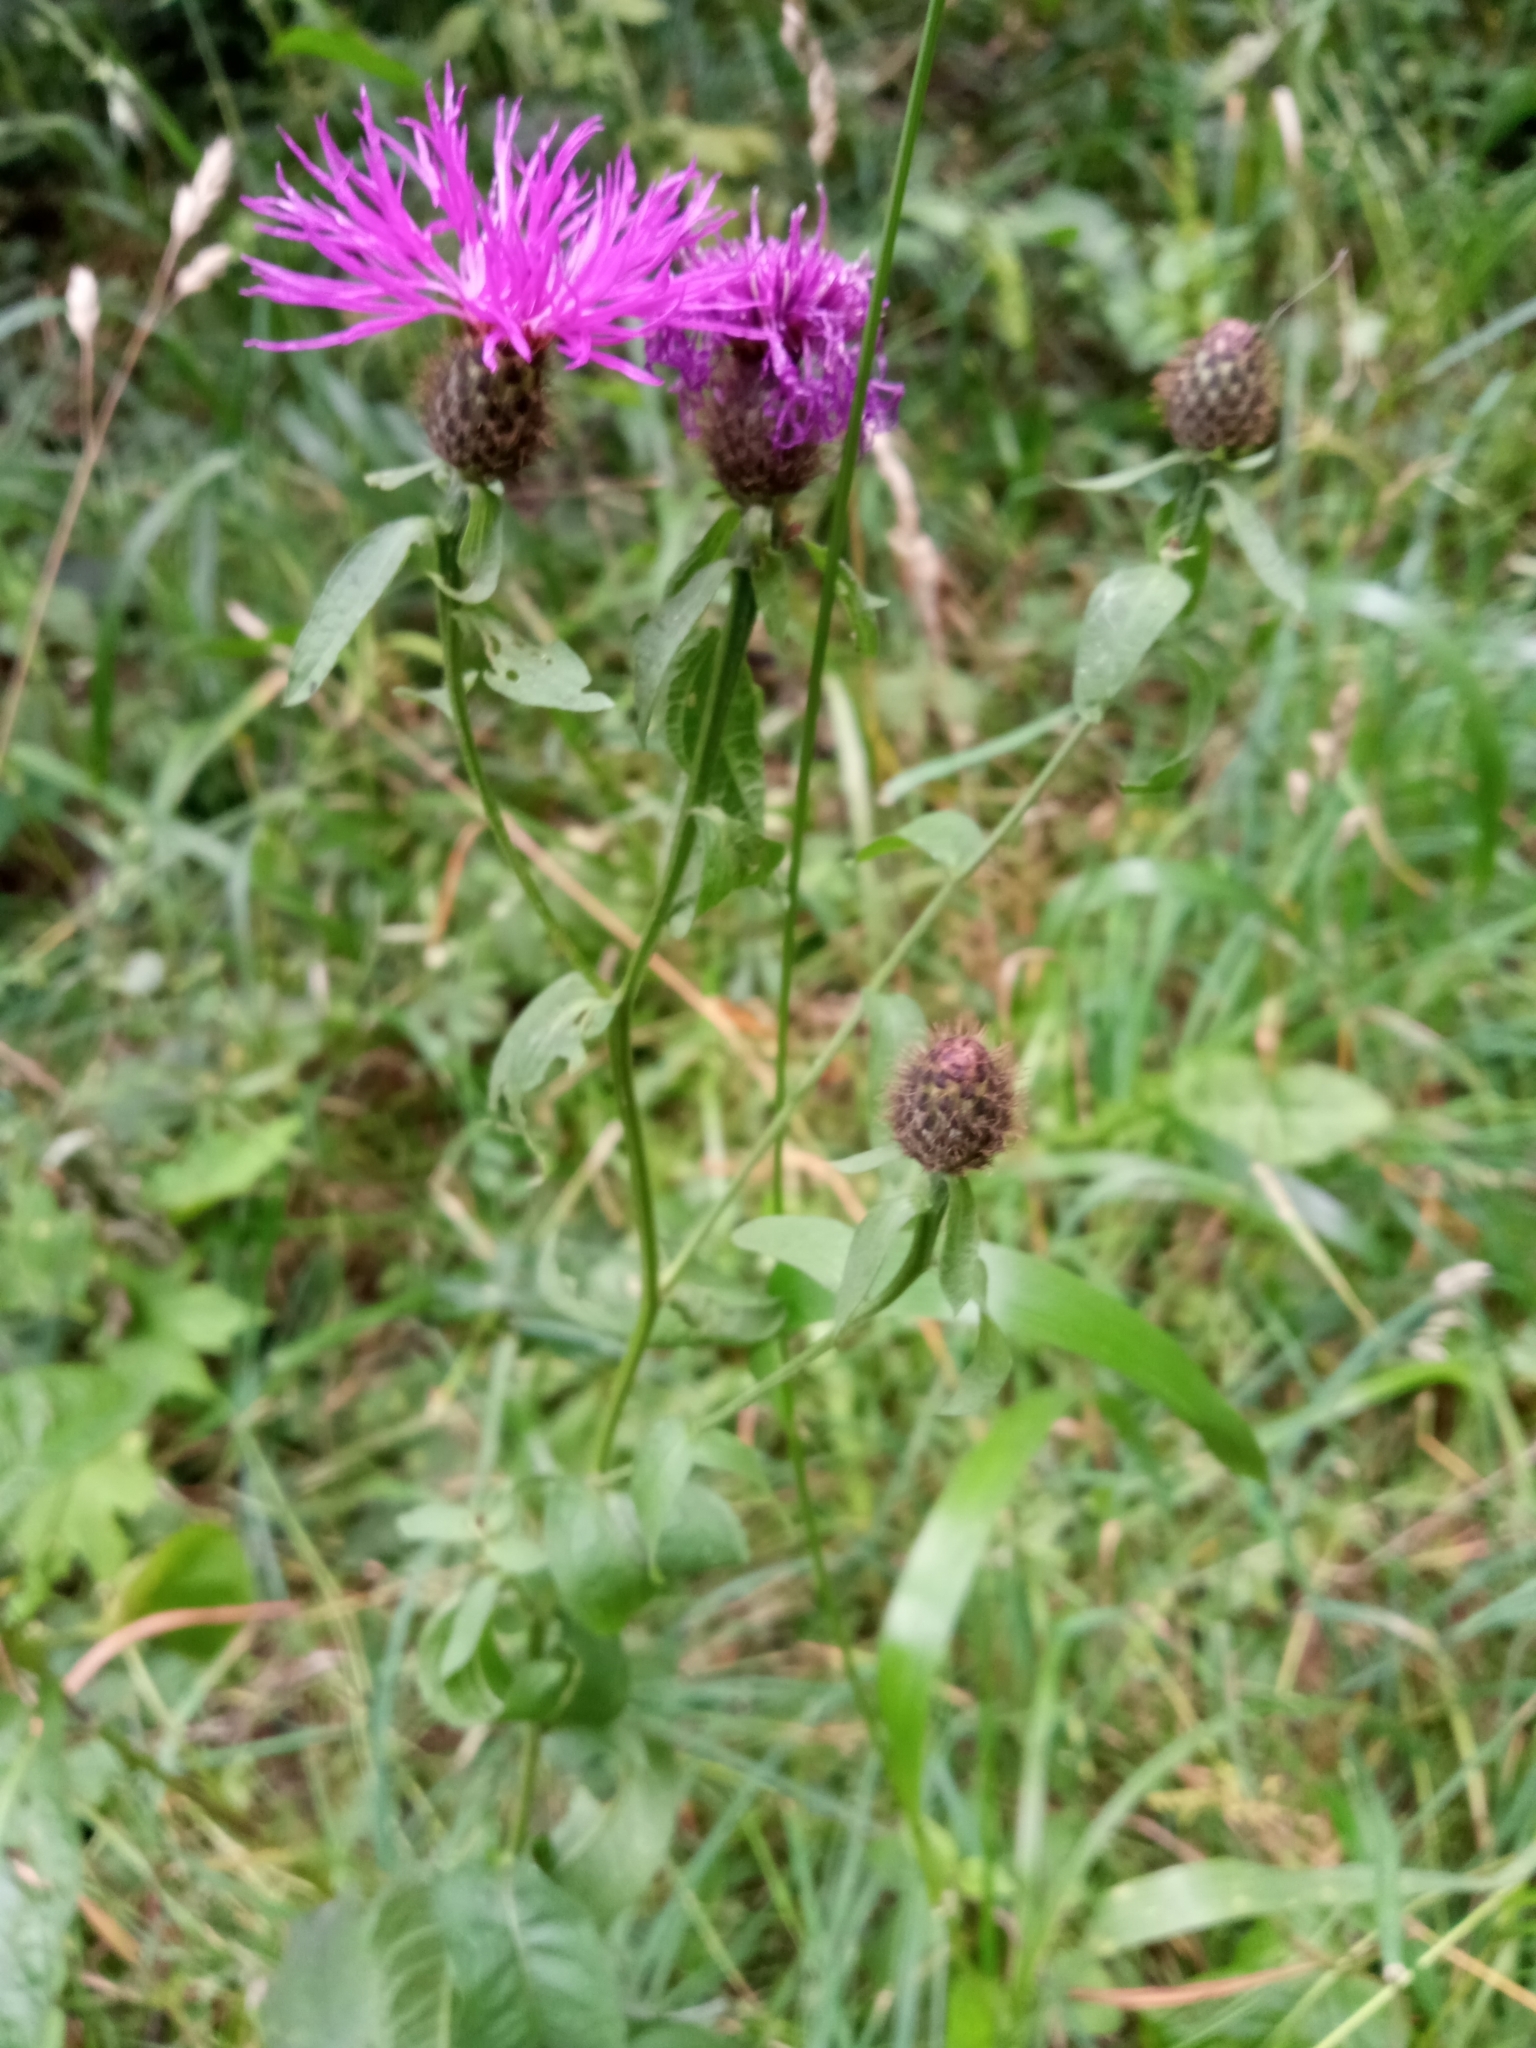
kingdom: Plantae
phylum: Tracheophyta
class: Magnoliopsida
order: Asterales
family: Asteraceae
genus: Centaurea
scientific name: Centaurea phrygia
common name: Wig knapweed
